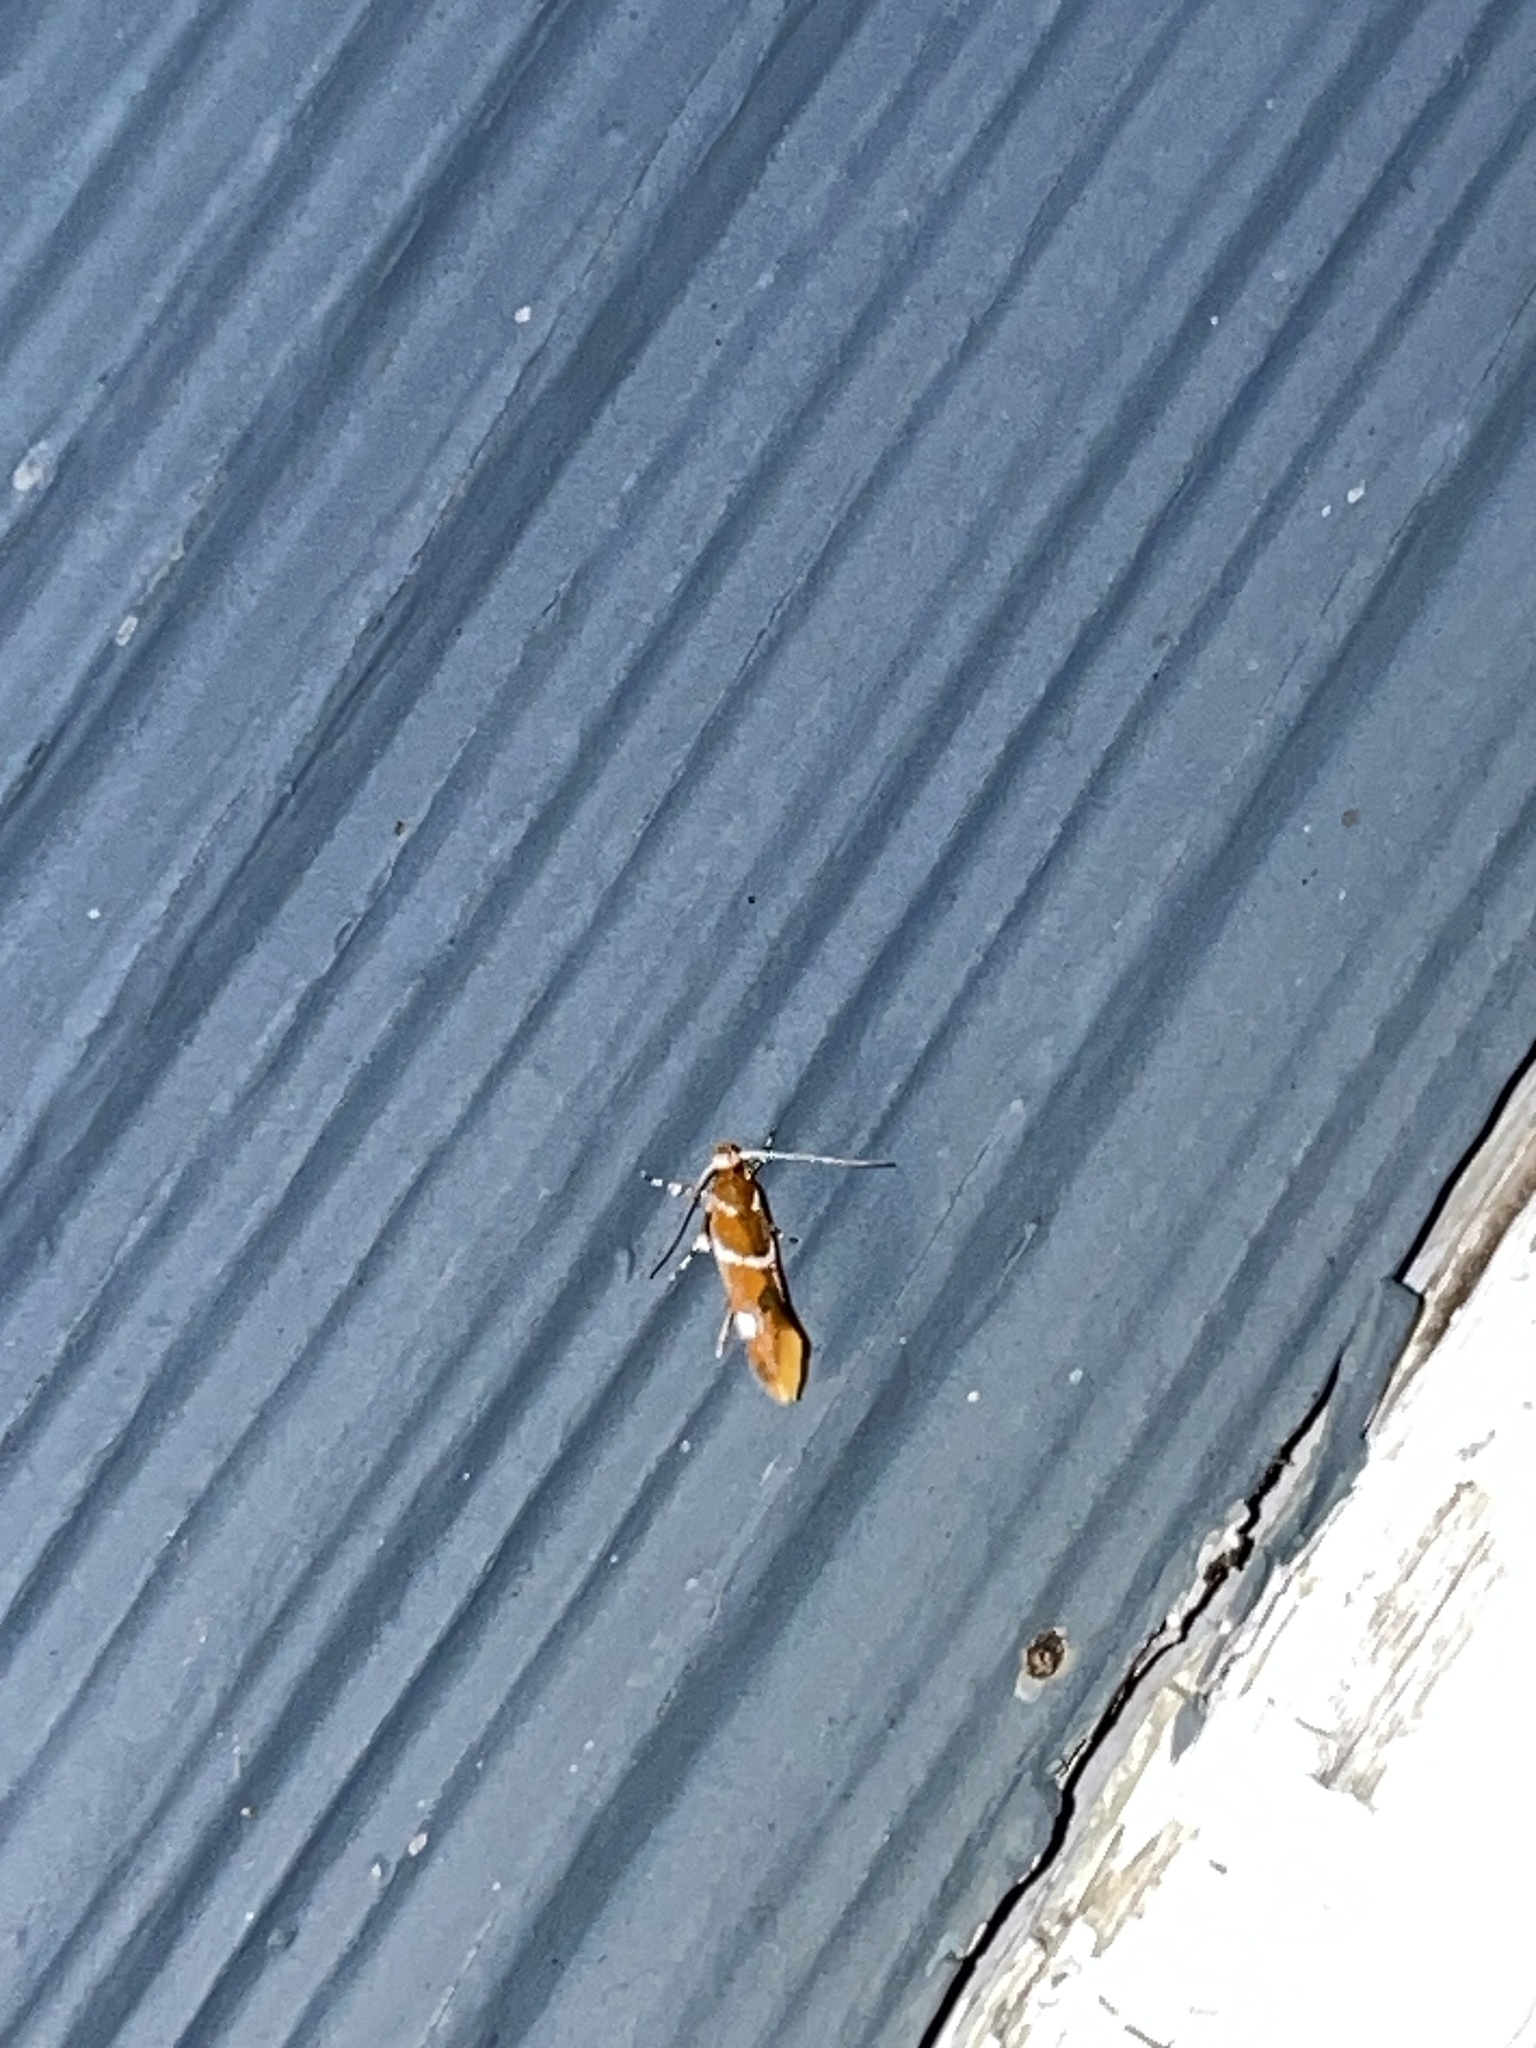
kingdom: Animalia
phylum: Arthropoda
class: Insecta
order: Lepidoptera
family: Oecophoridae
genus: Promalactis
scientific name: Promalactis suzukiella
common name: Moth
